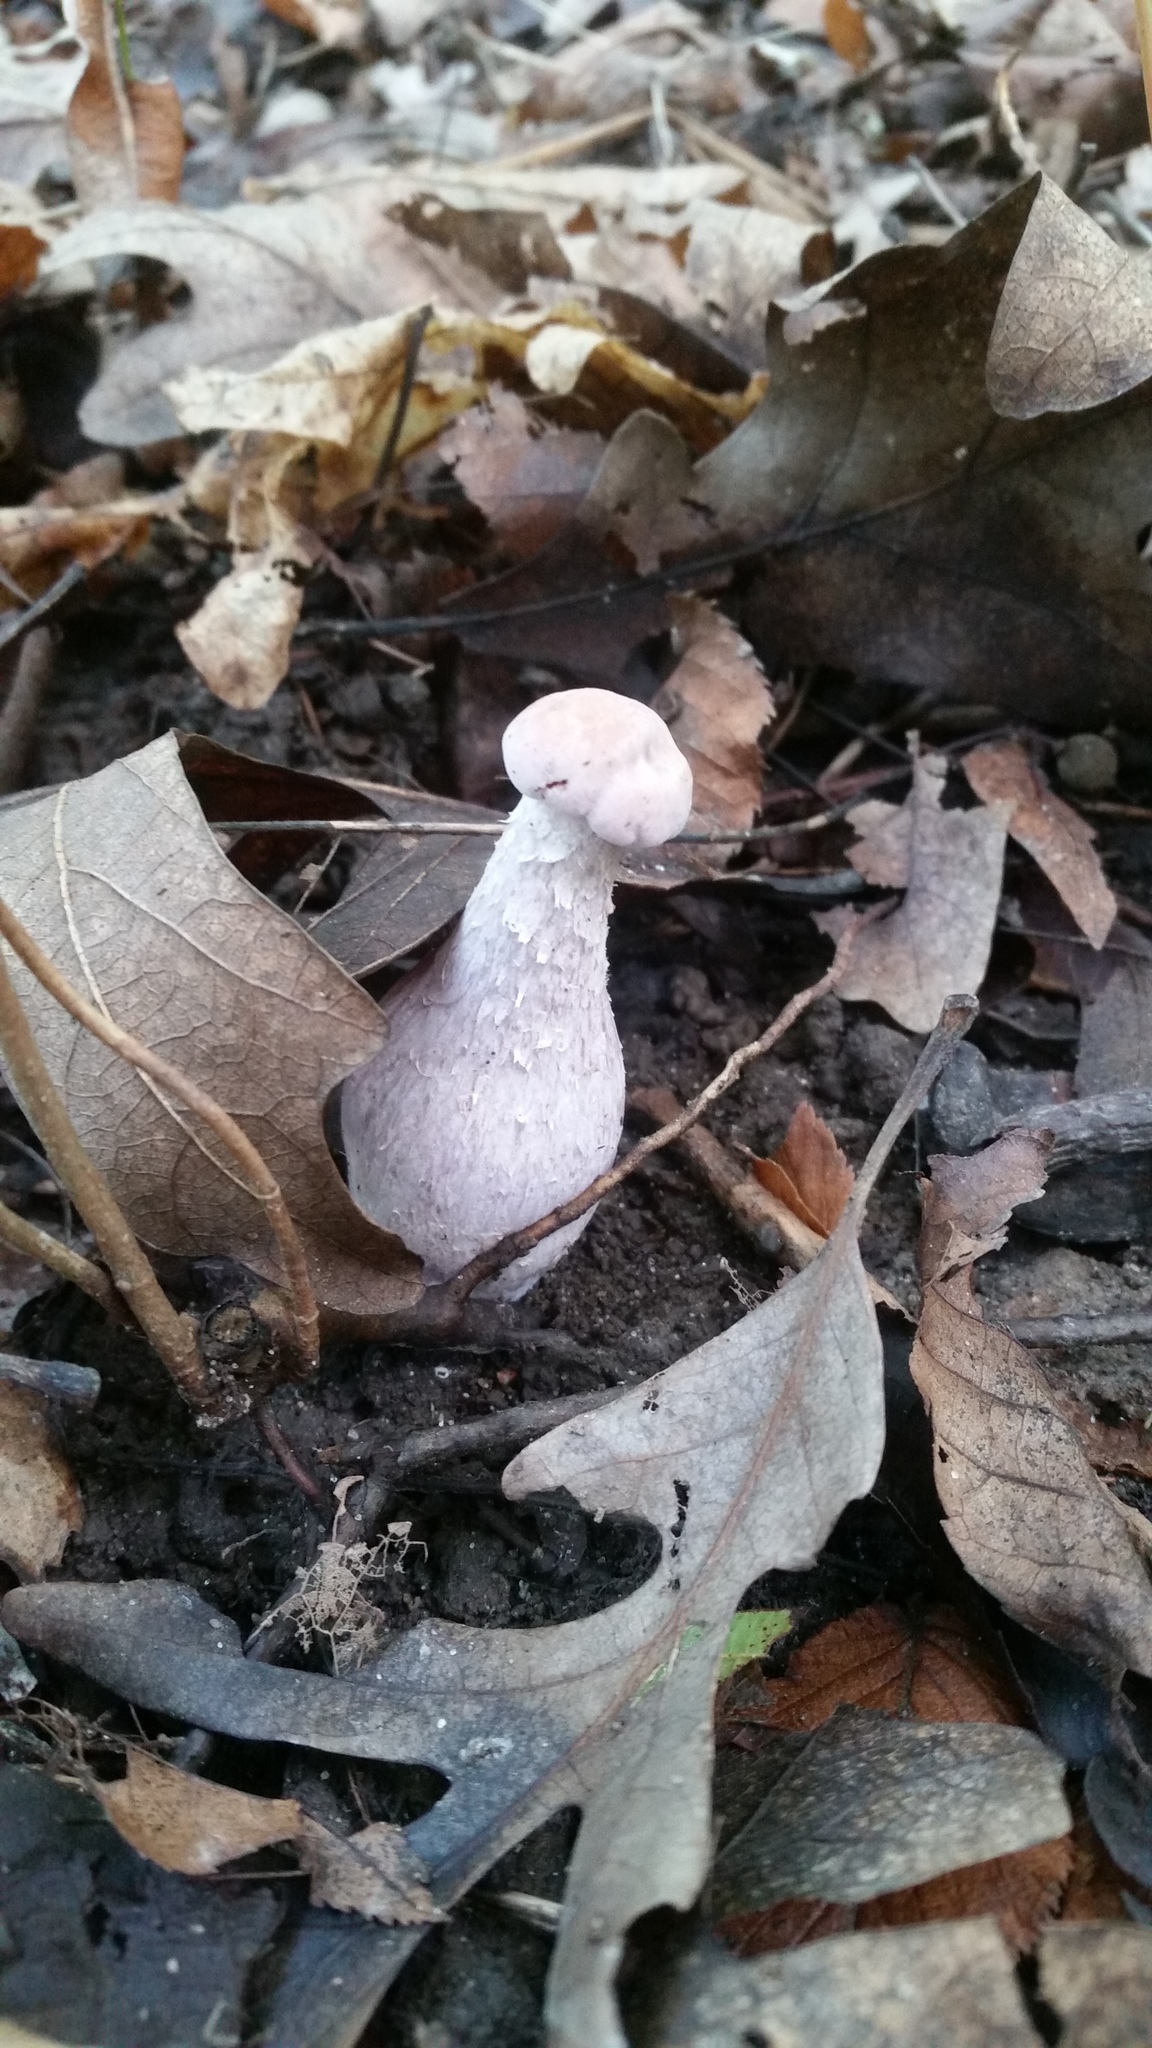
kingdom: Fungi
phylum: Basidiomycota
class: Agaricomycetes
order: Agaricales
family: Hydnangiaceae
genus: Laccaria
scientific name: Laccaria ochropurpurea
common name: Purple laccaria
